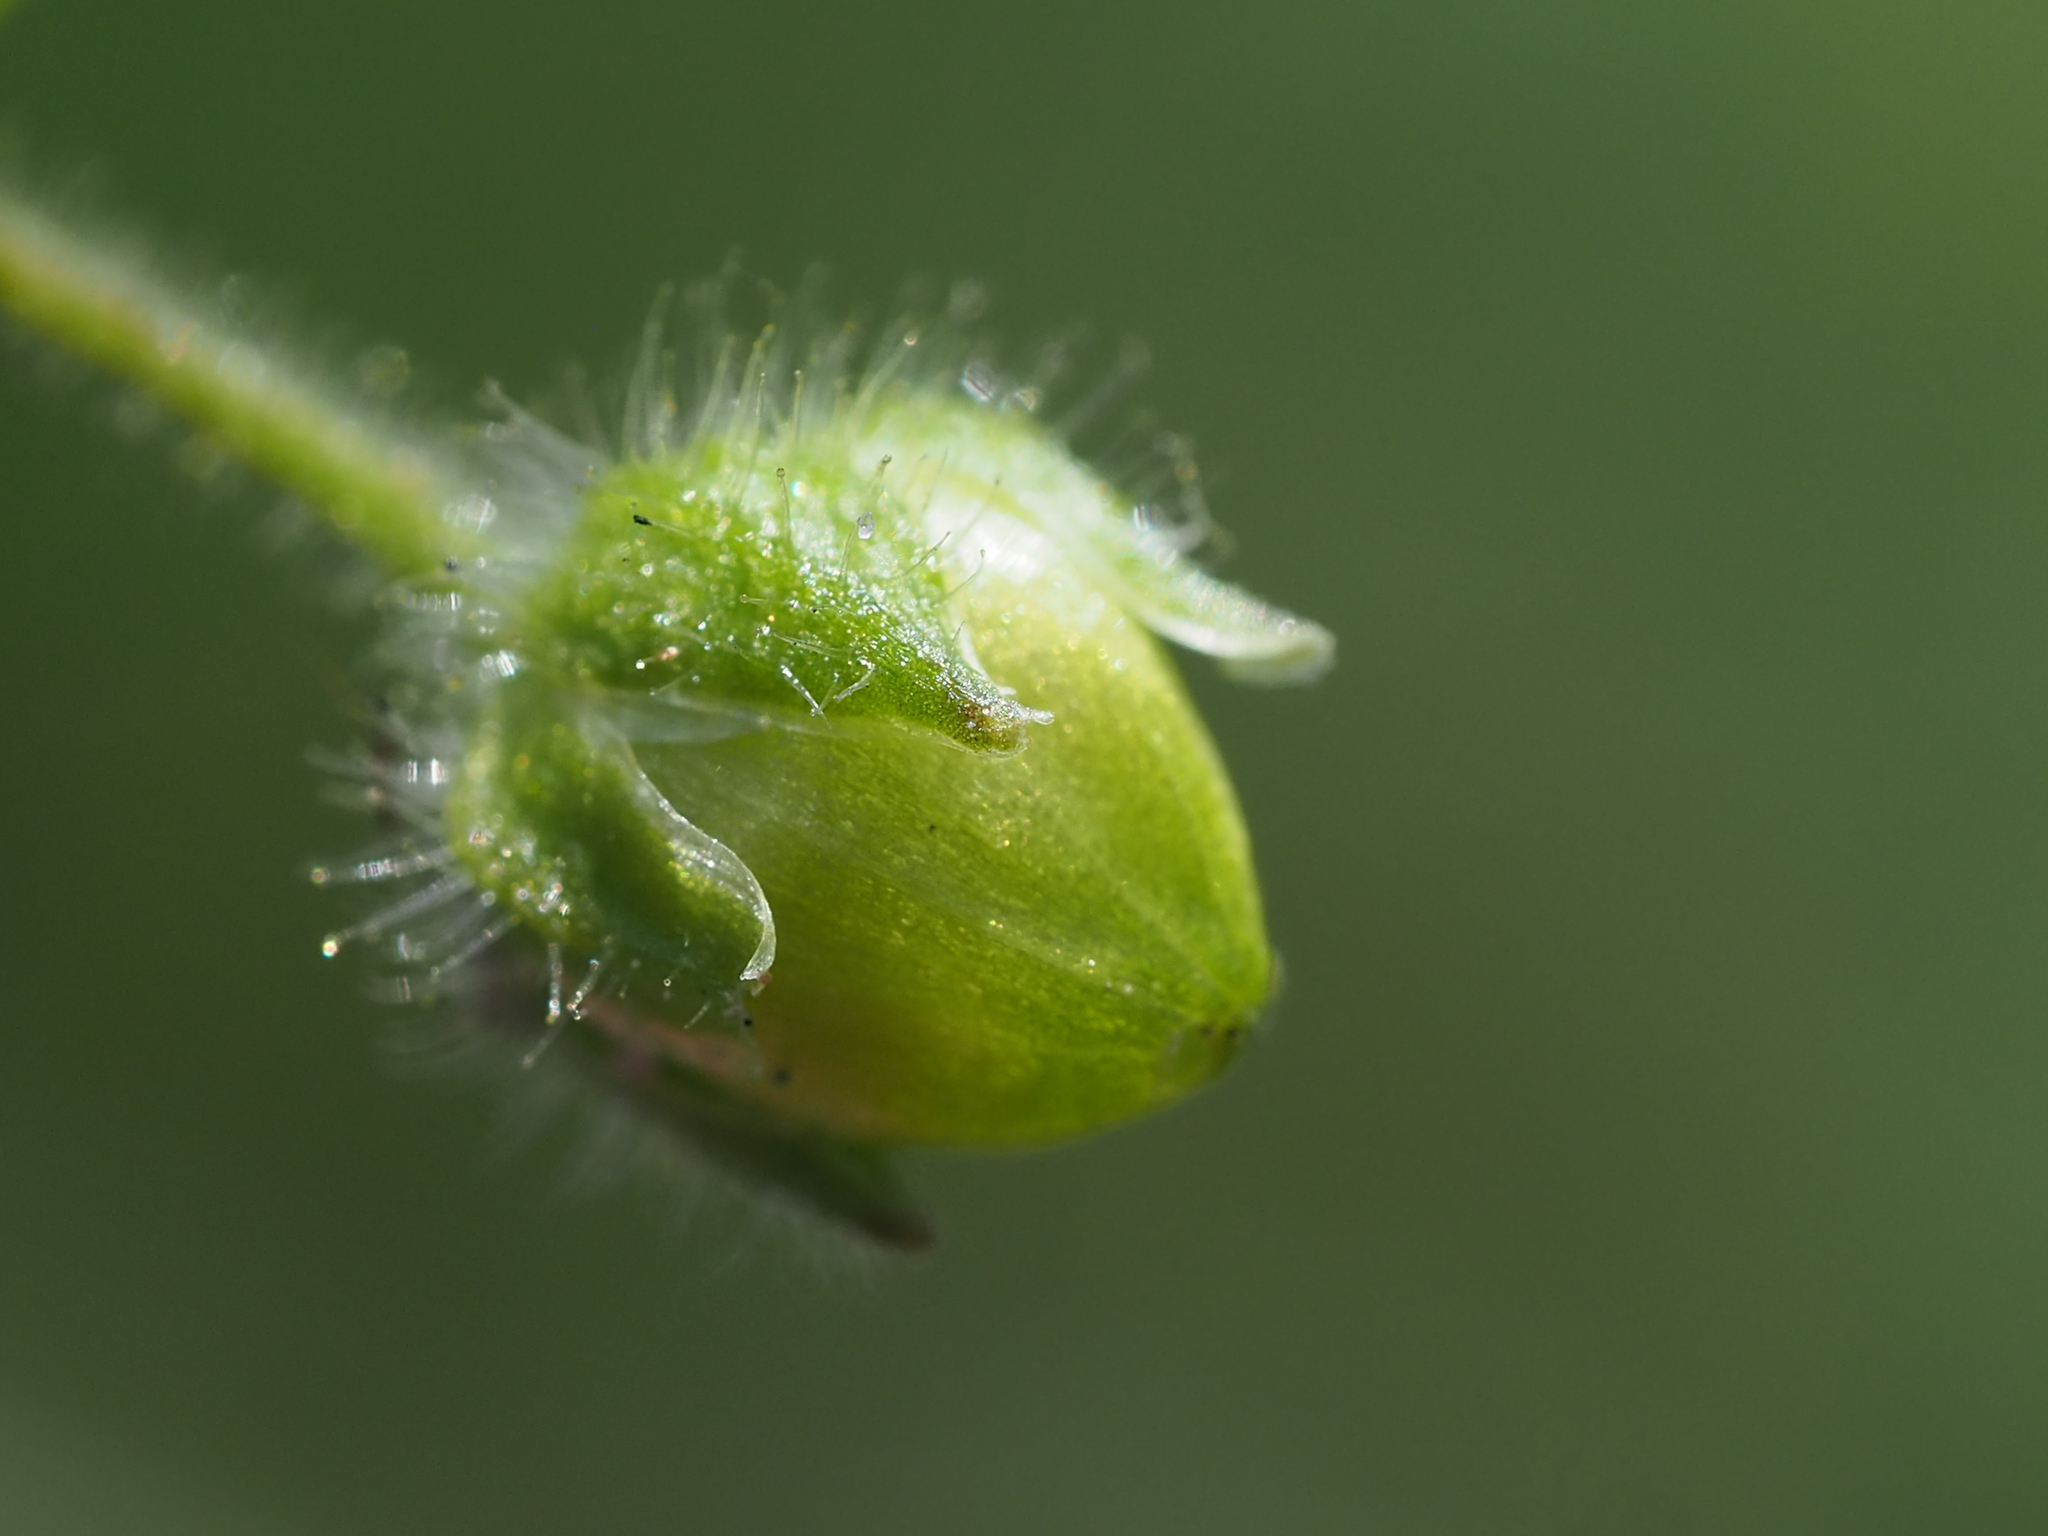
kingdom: Plantae
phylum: Tracheophyta
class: Magnoliopsida
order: Caryophyllales
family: Caryophyllaceae
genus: Stellaria
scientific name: Stellaria aquatica
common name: Water chickweed
